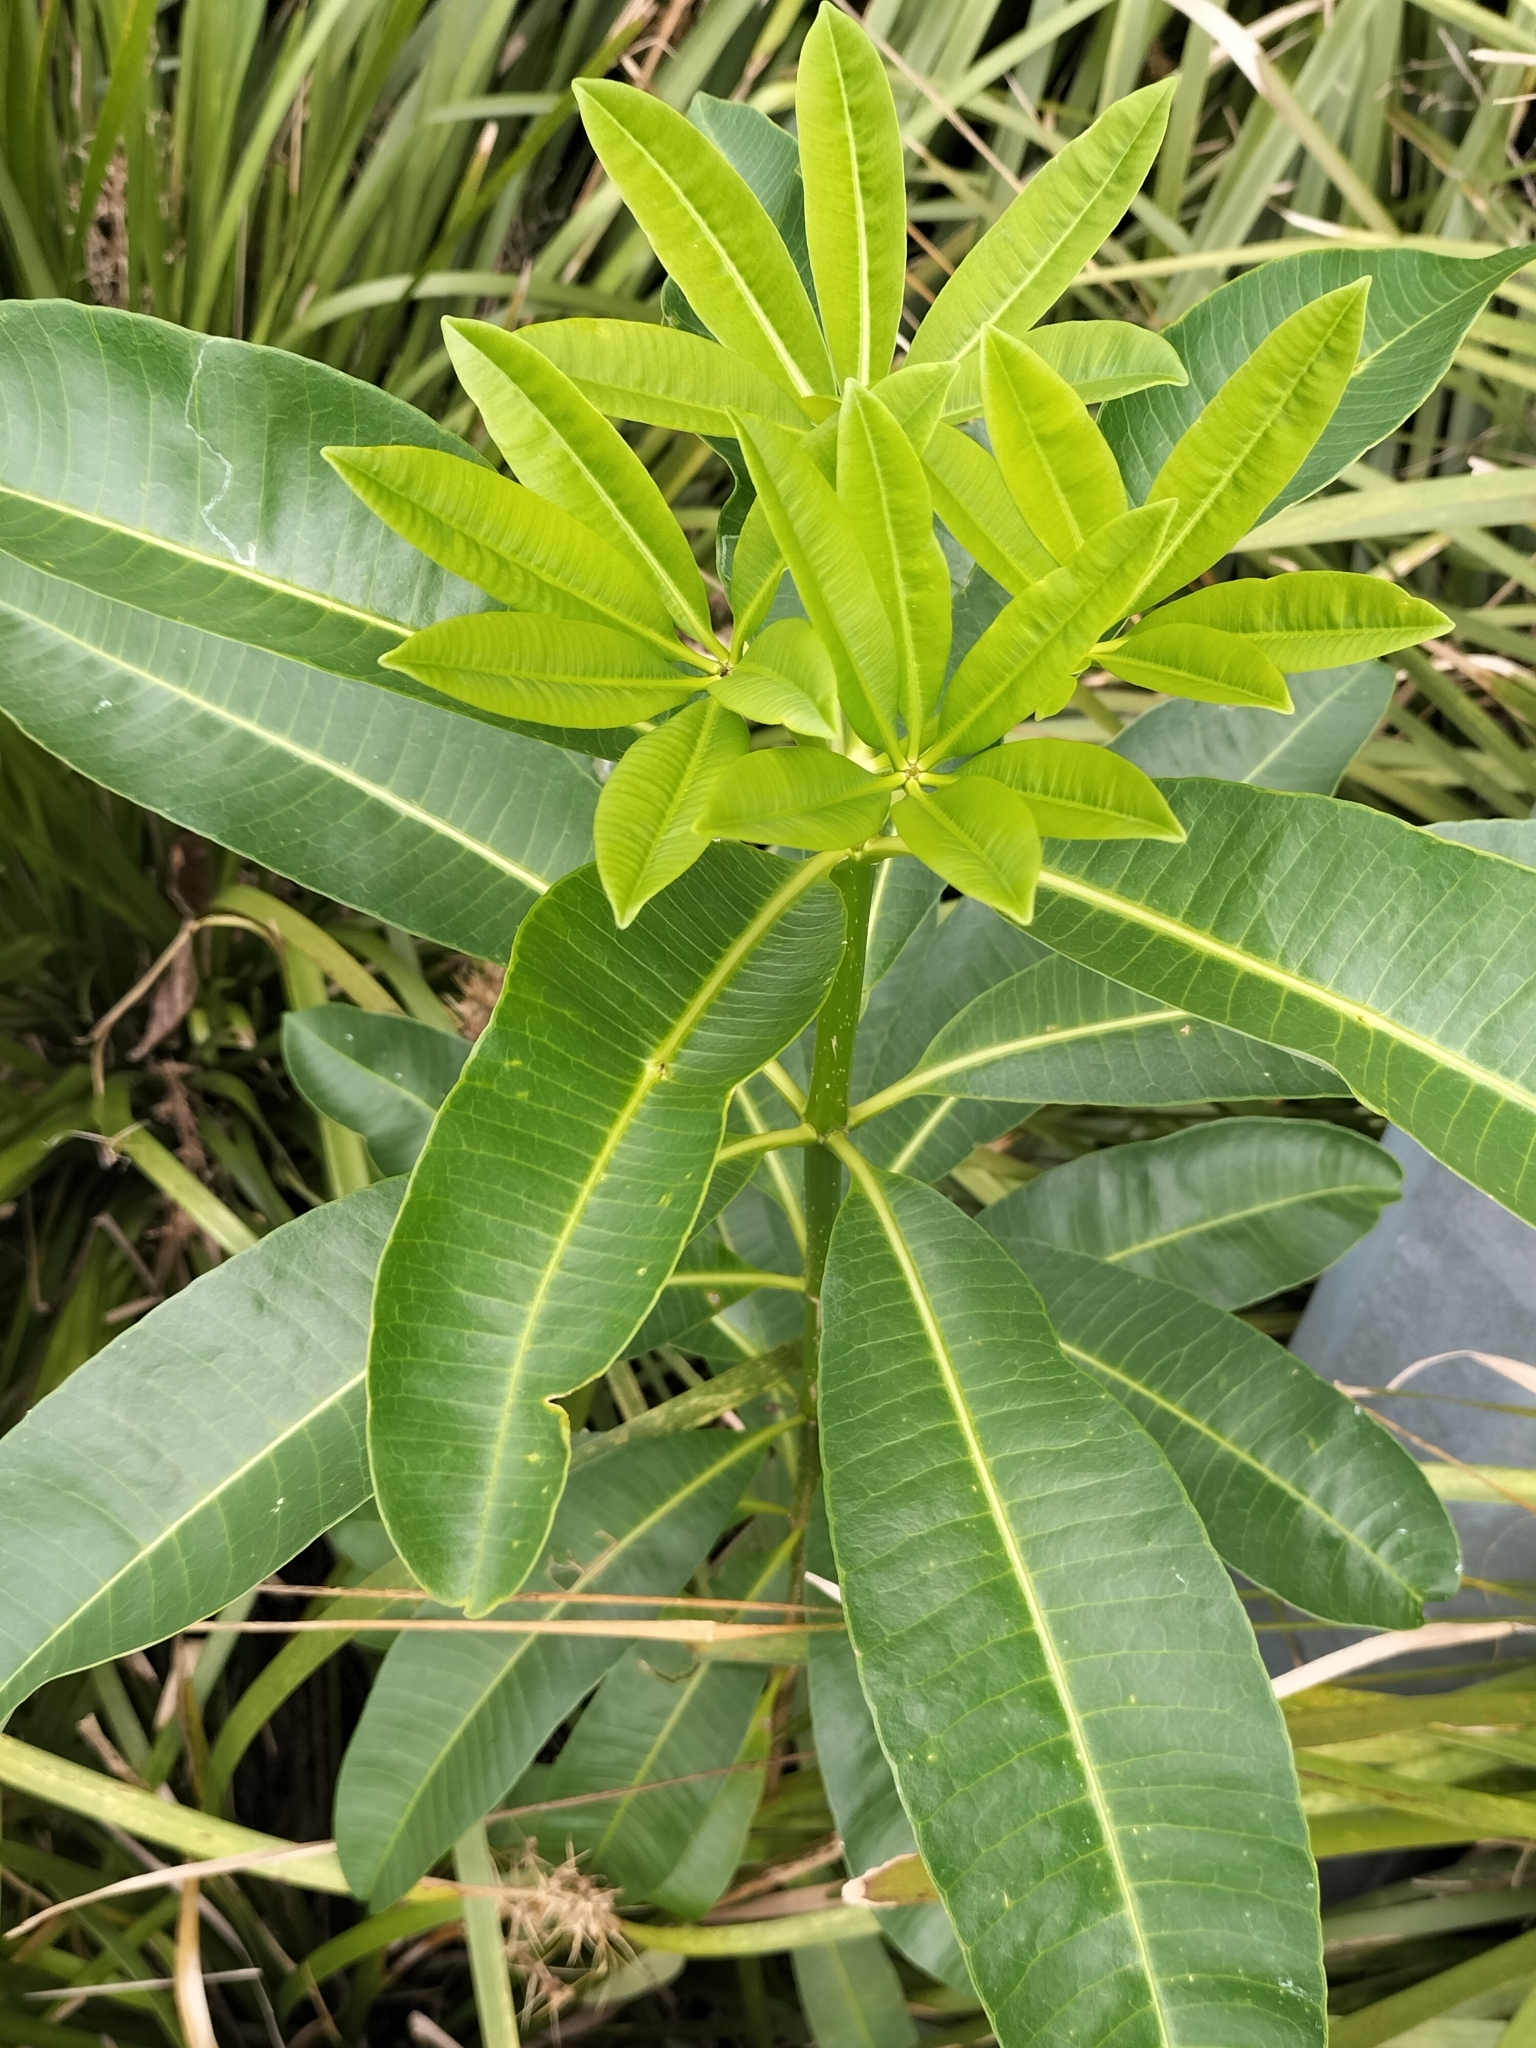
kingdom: Plantae
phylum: Tracheophyta
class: Magnoliopsida
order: Gentianales
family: Apocynaceae
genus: Alstonia
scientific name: Alstonia scholaris
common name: White cheesewood
